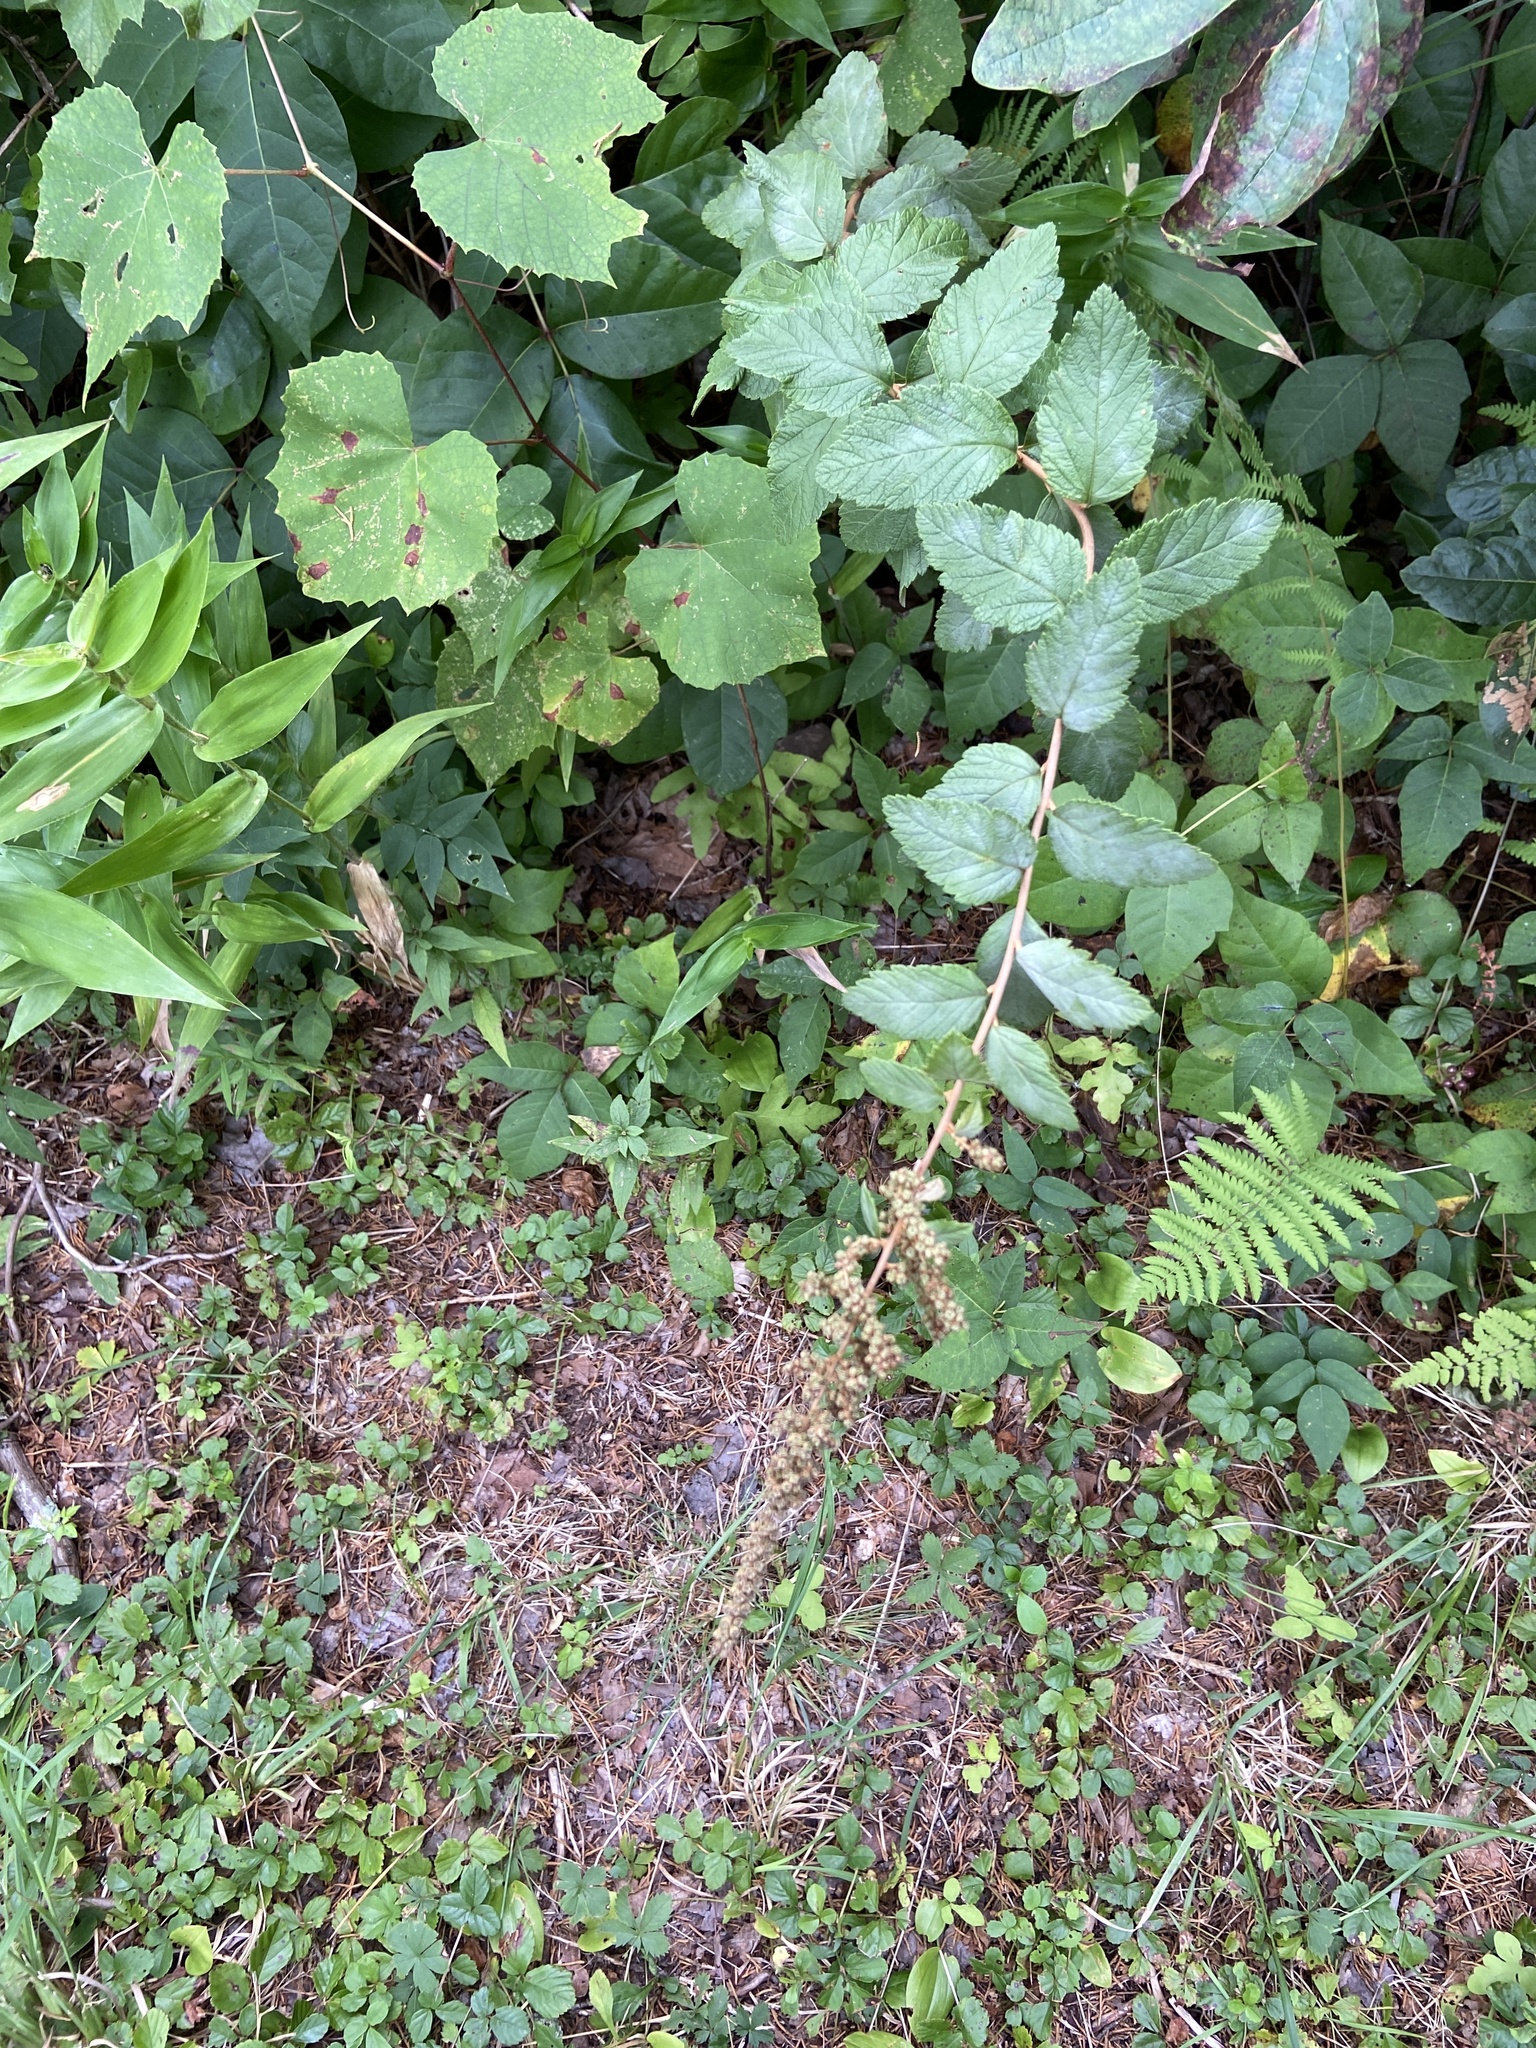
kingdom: Plantae
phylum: Tracheophyta
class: Magnoliopsida
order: Rosales
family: Rosaceae
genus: Spiraea
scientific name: Spiraea tomentosa
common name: Hardhack
